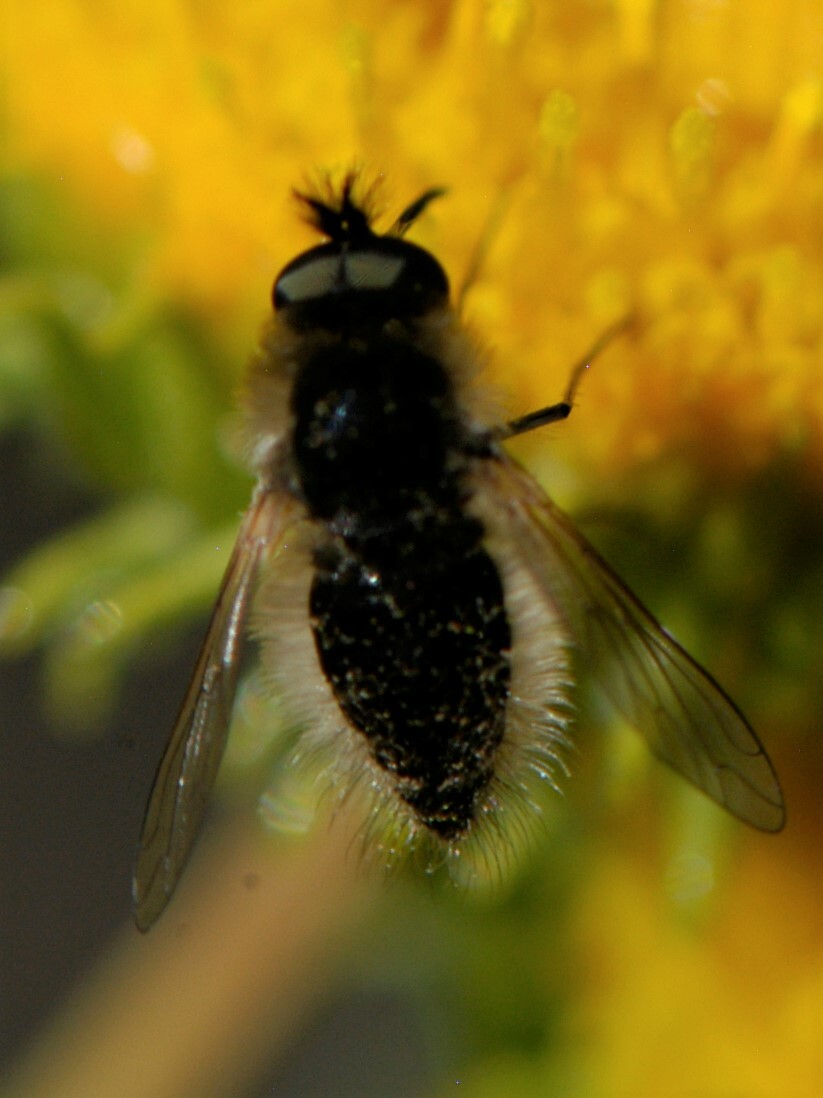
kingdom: Animalia
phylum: Arthropoda
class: Insecta
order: Diptera
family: Bombyliidae
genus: Sparnopolius
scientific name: Sparnopolius coloradensis
